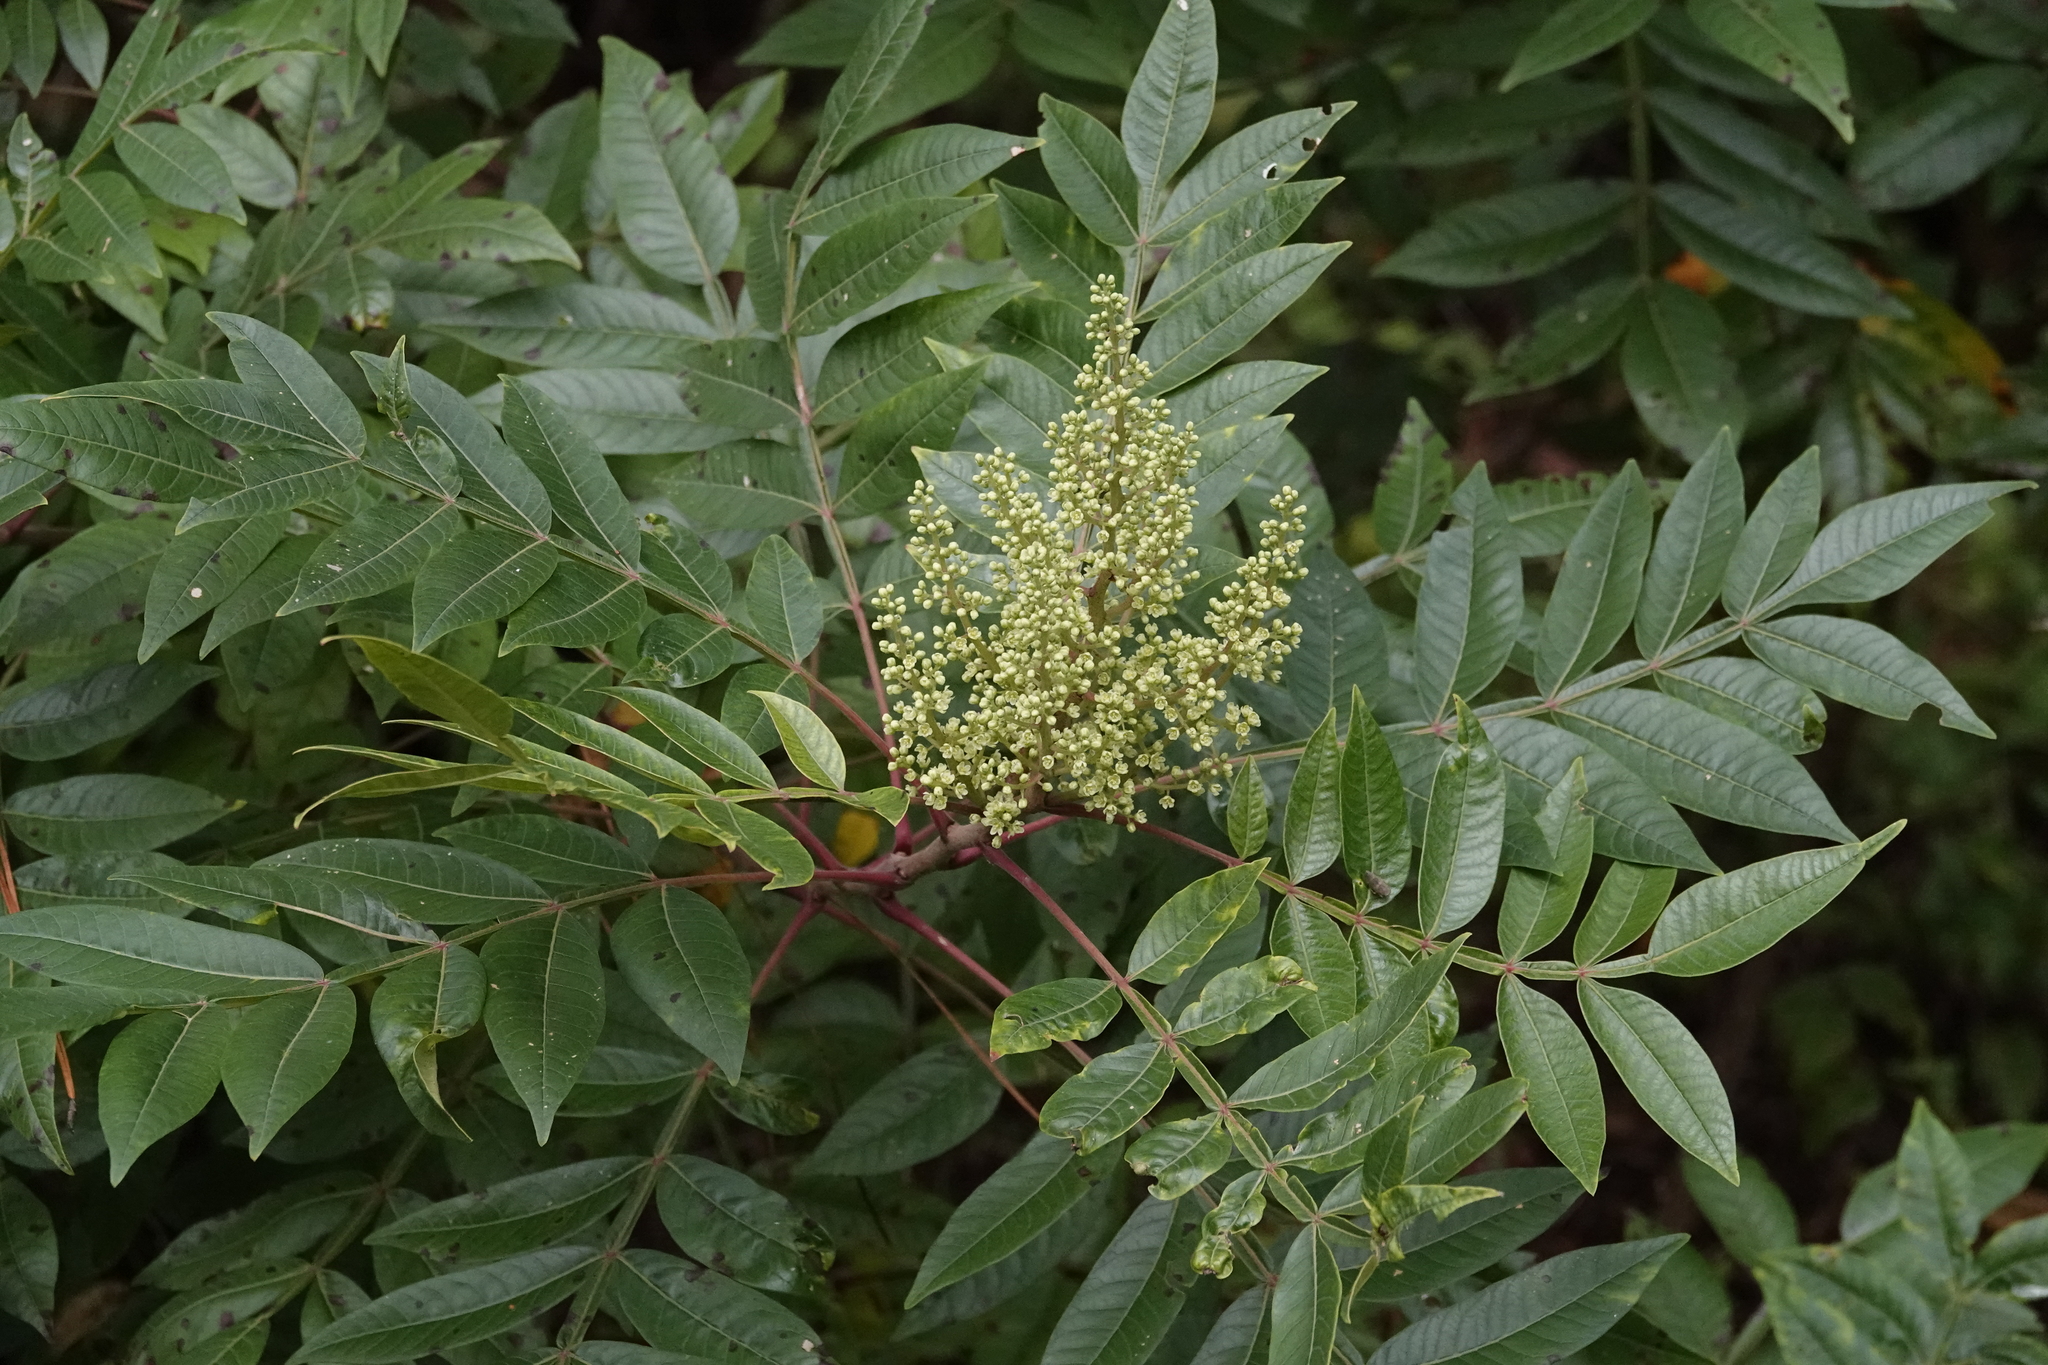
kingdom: Plantae
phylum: Tracheophyta
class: Magnoliopsida
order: Sapindales
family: Anacardiaceae
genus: Rhus
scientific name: Rhus copallina
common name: Shining sumac
